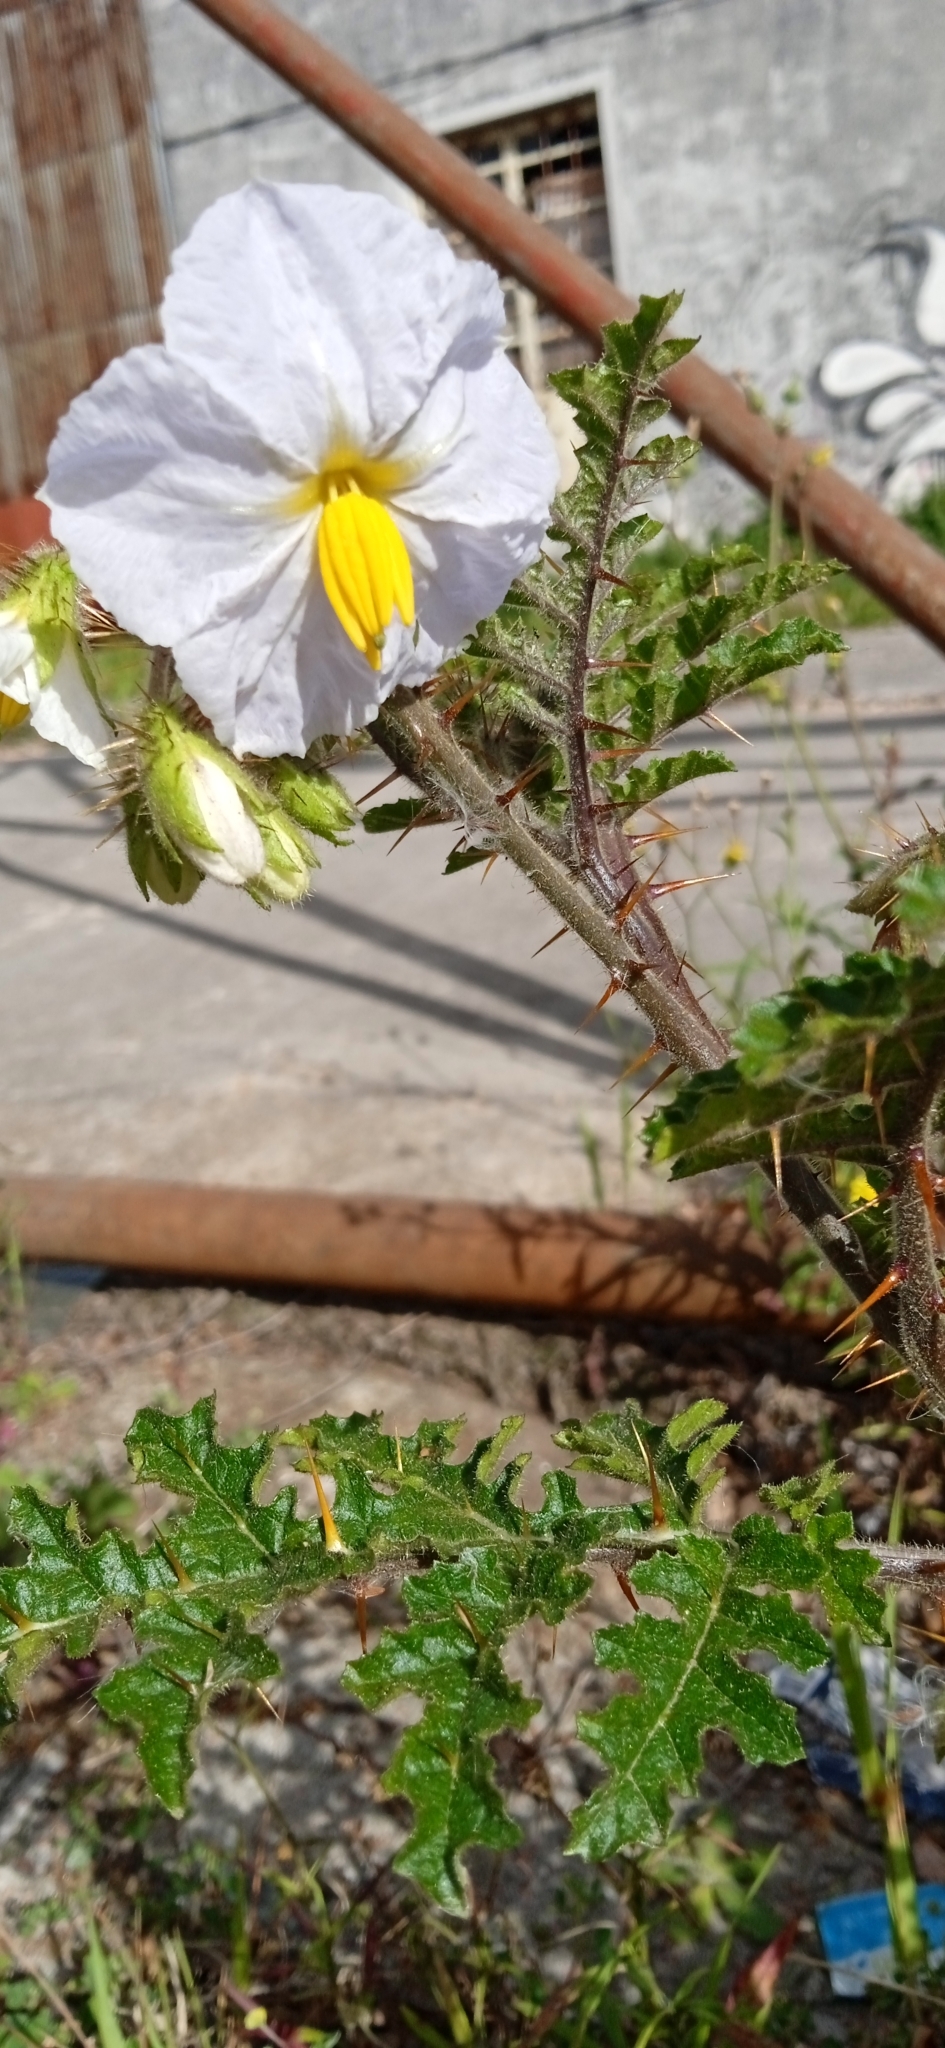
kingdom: Plantae
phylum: Tracheophyta
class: Magnoliopsida
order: Solanales
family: Solanaceae
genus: Solanum
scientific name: Solanum sisymbriifolium
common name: Red buffalo-bur
